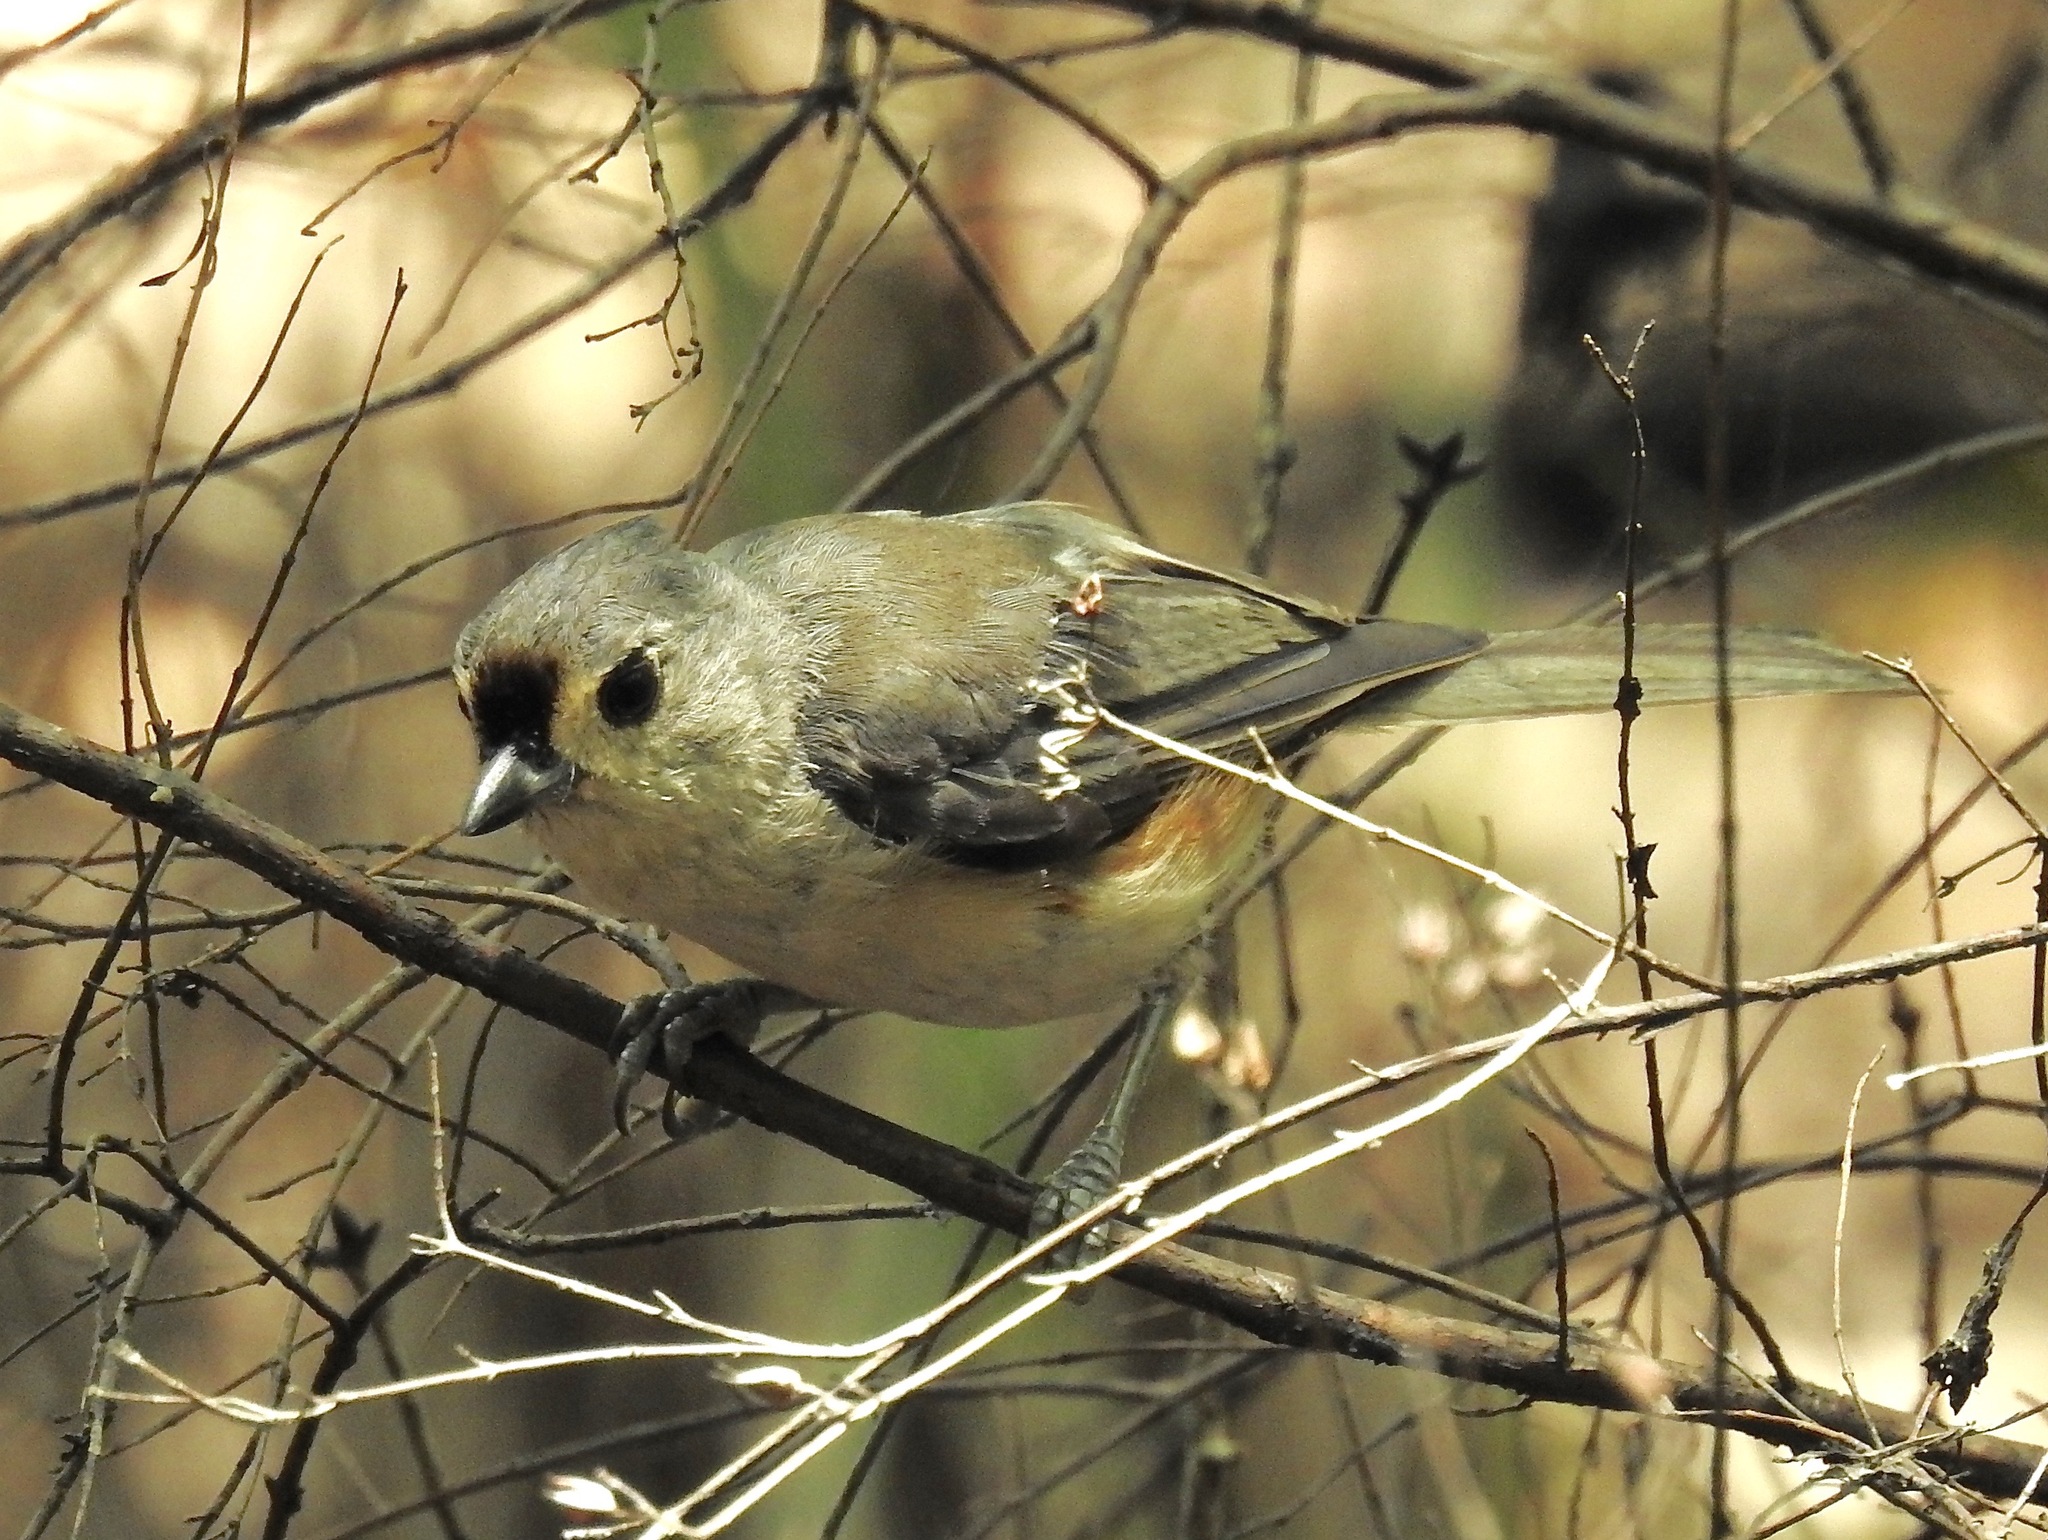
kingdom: Animalia
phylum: Chordata
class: Aves
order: Passeriformes
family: Paridae
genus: Baeolophus
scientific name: Baeolophus bicolor
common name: Tufted titmouse
